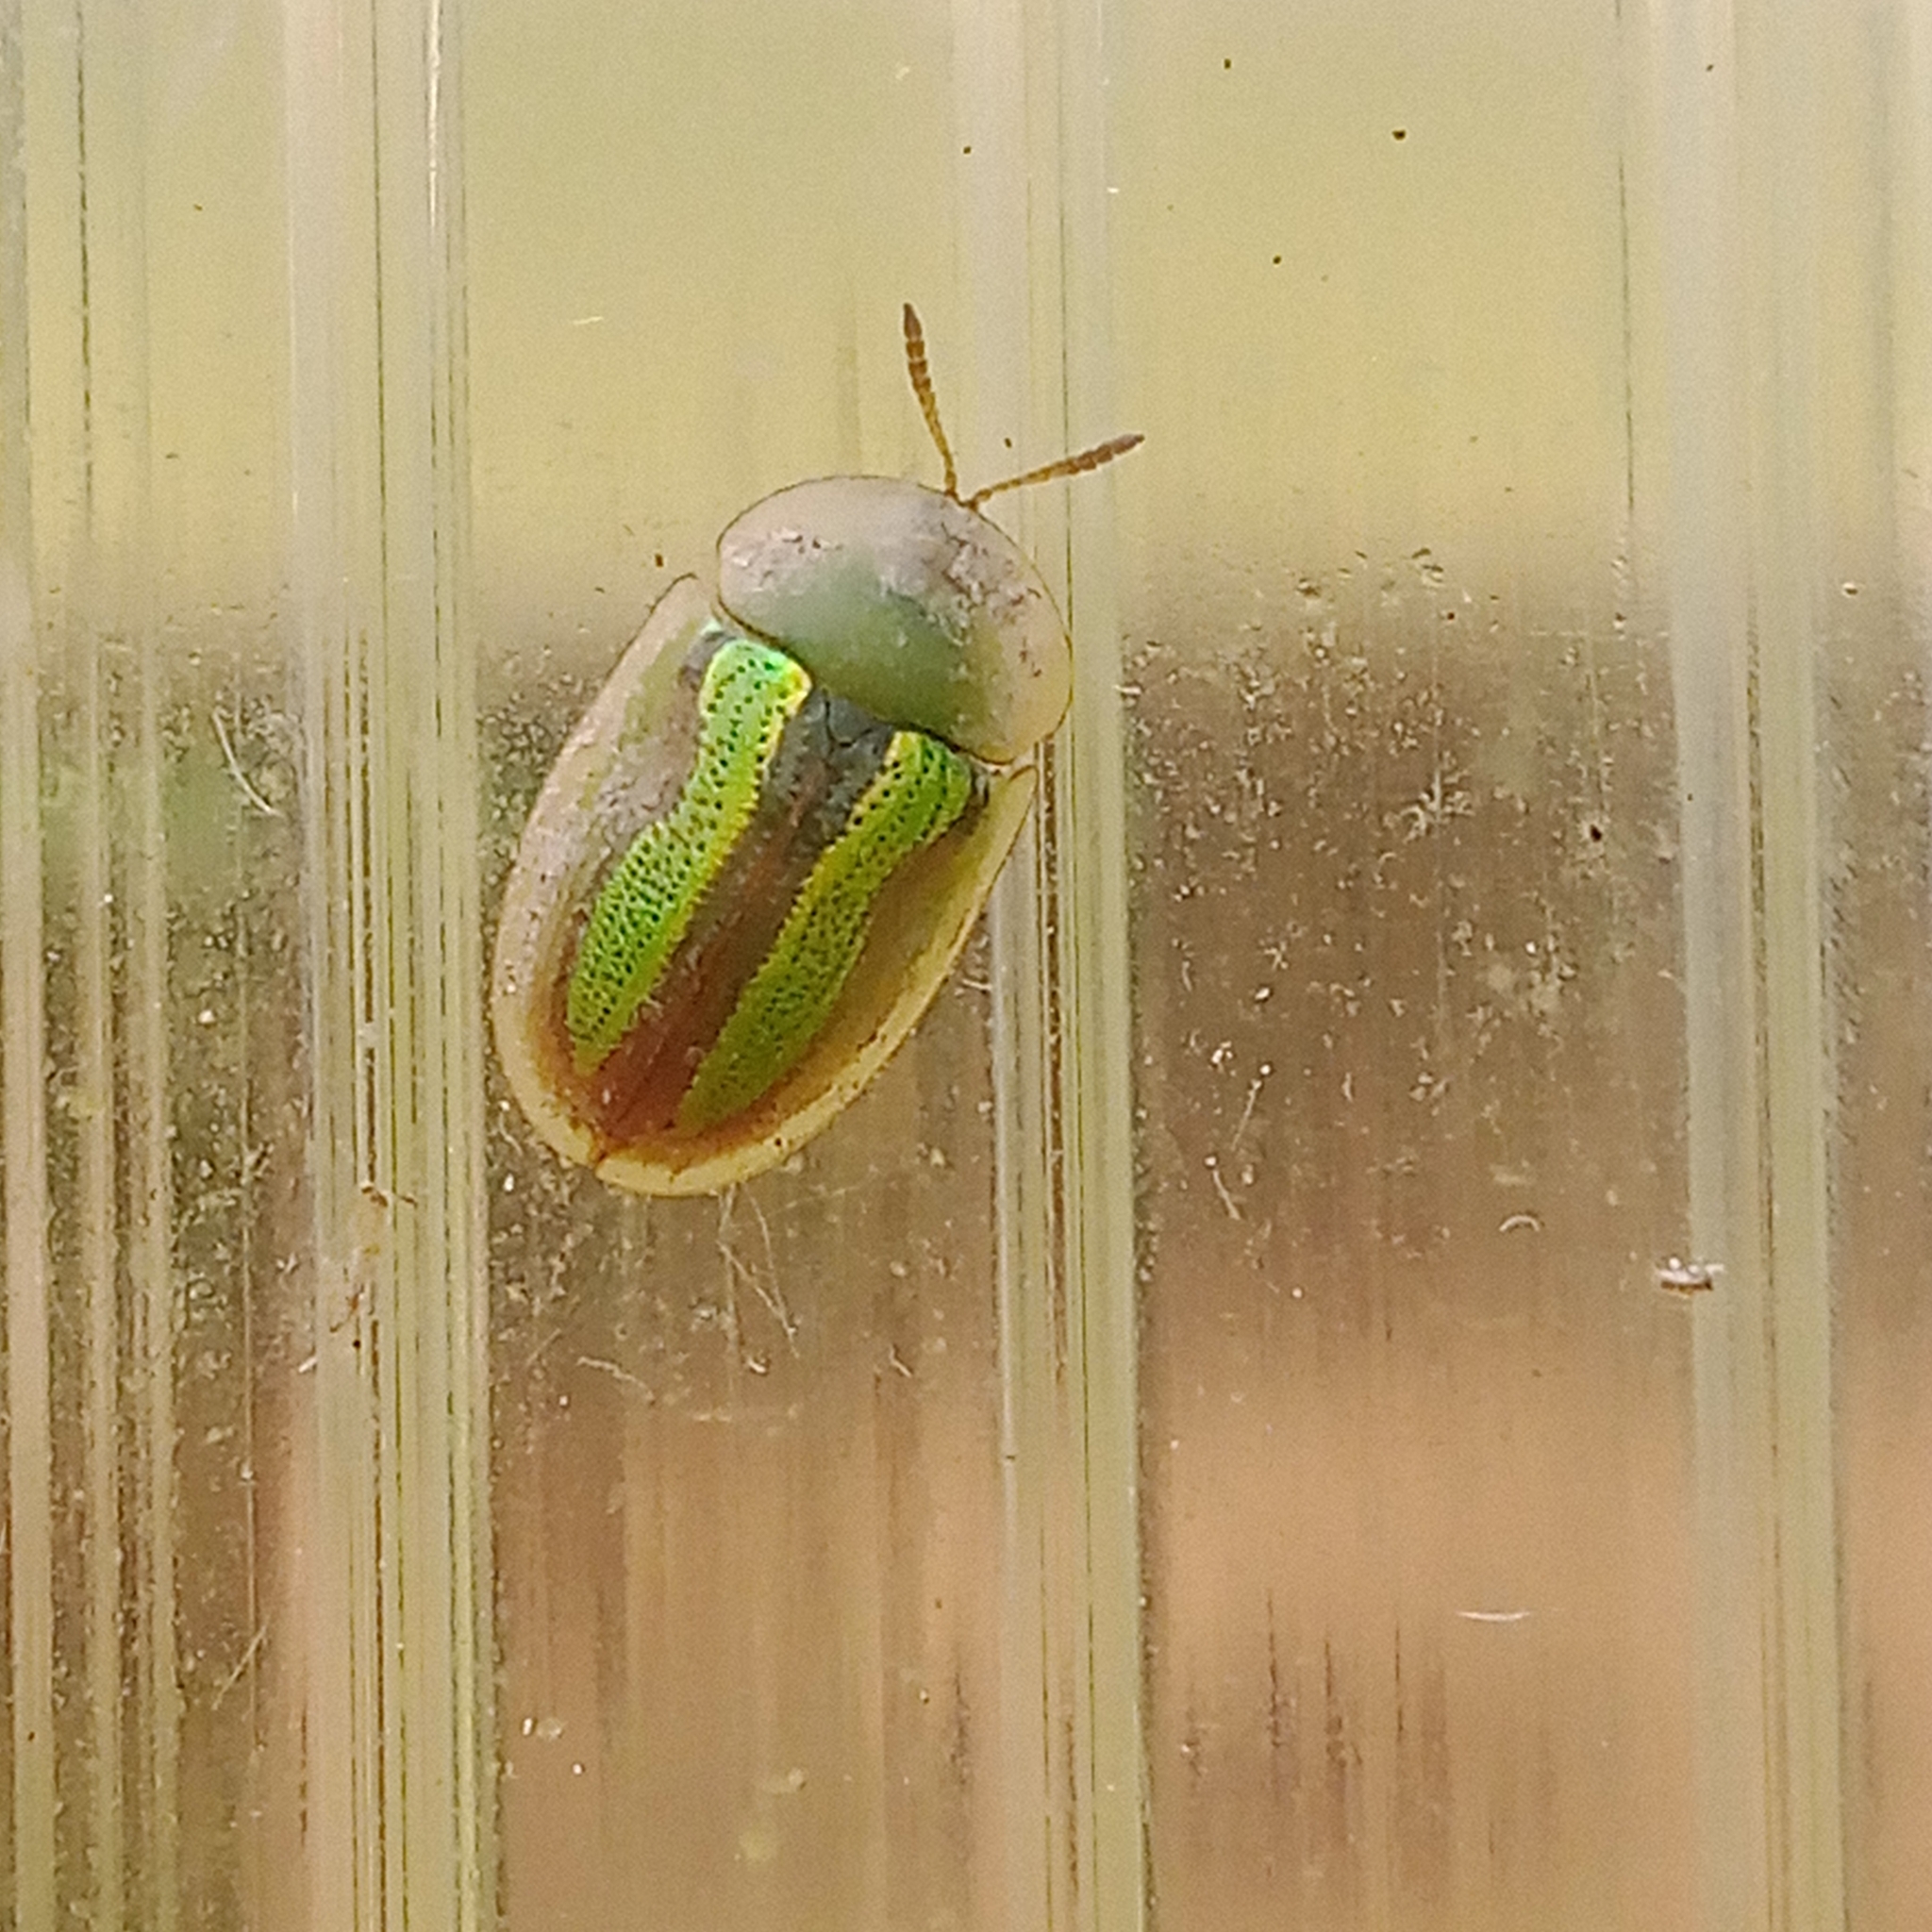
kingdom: Animalia
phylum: Arthropoda
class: Insecta
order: Coleoptera
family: Chrysomelidae
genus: Cassida
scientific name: Cassida vittata
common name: Bordered tortoise beetle
